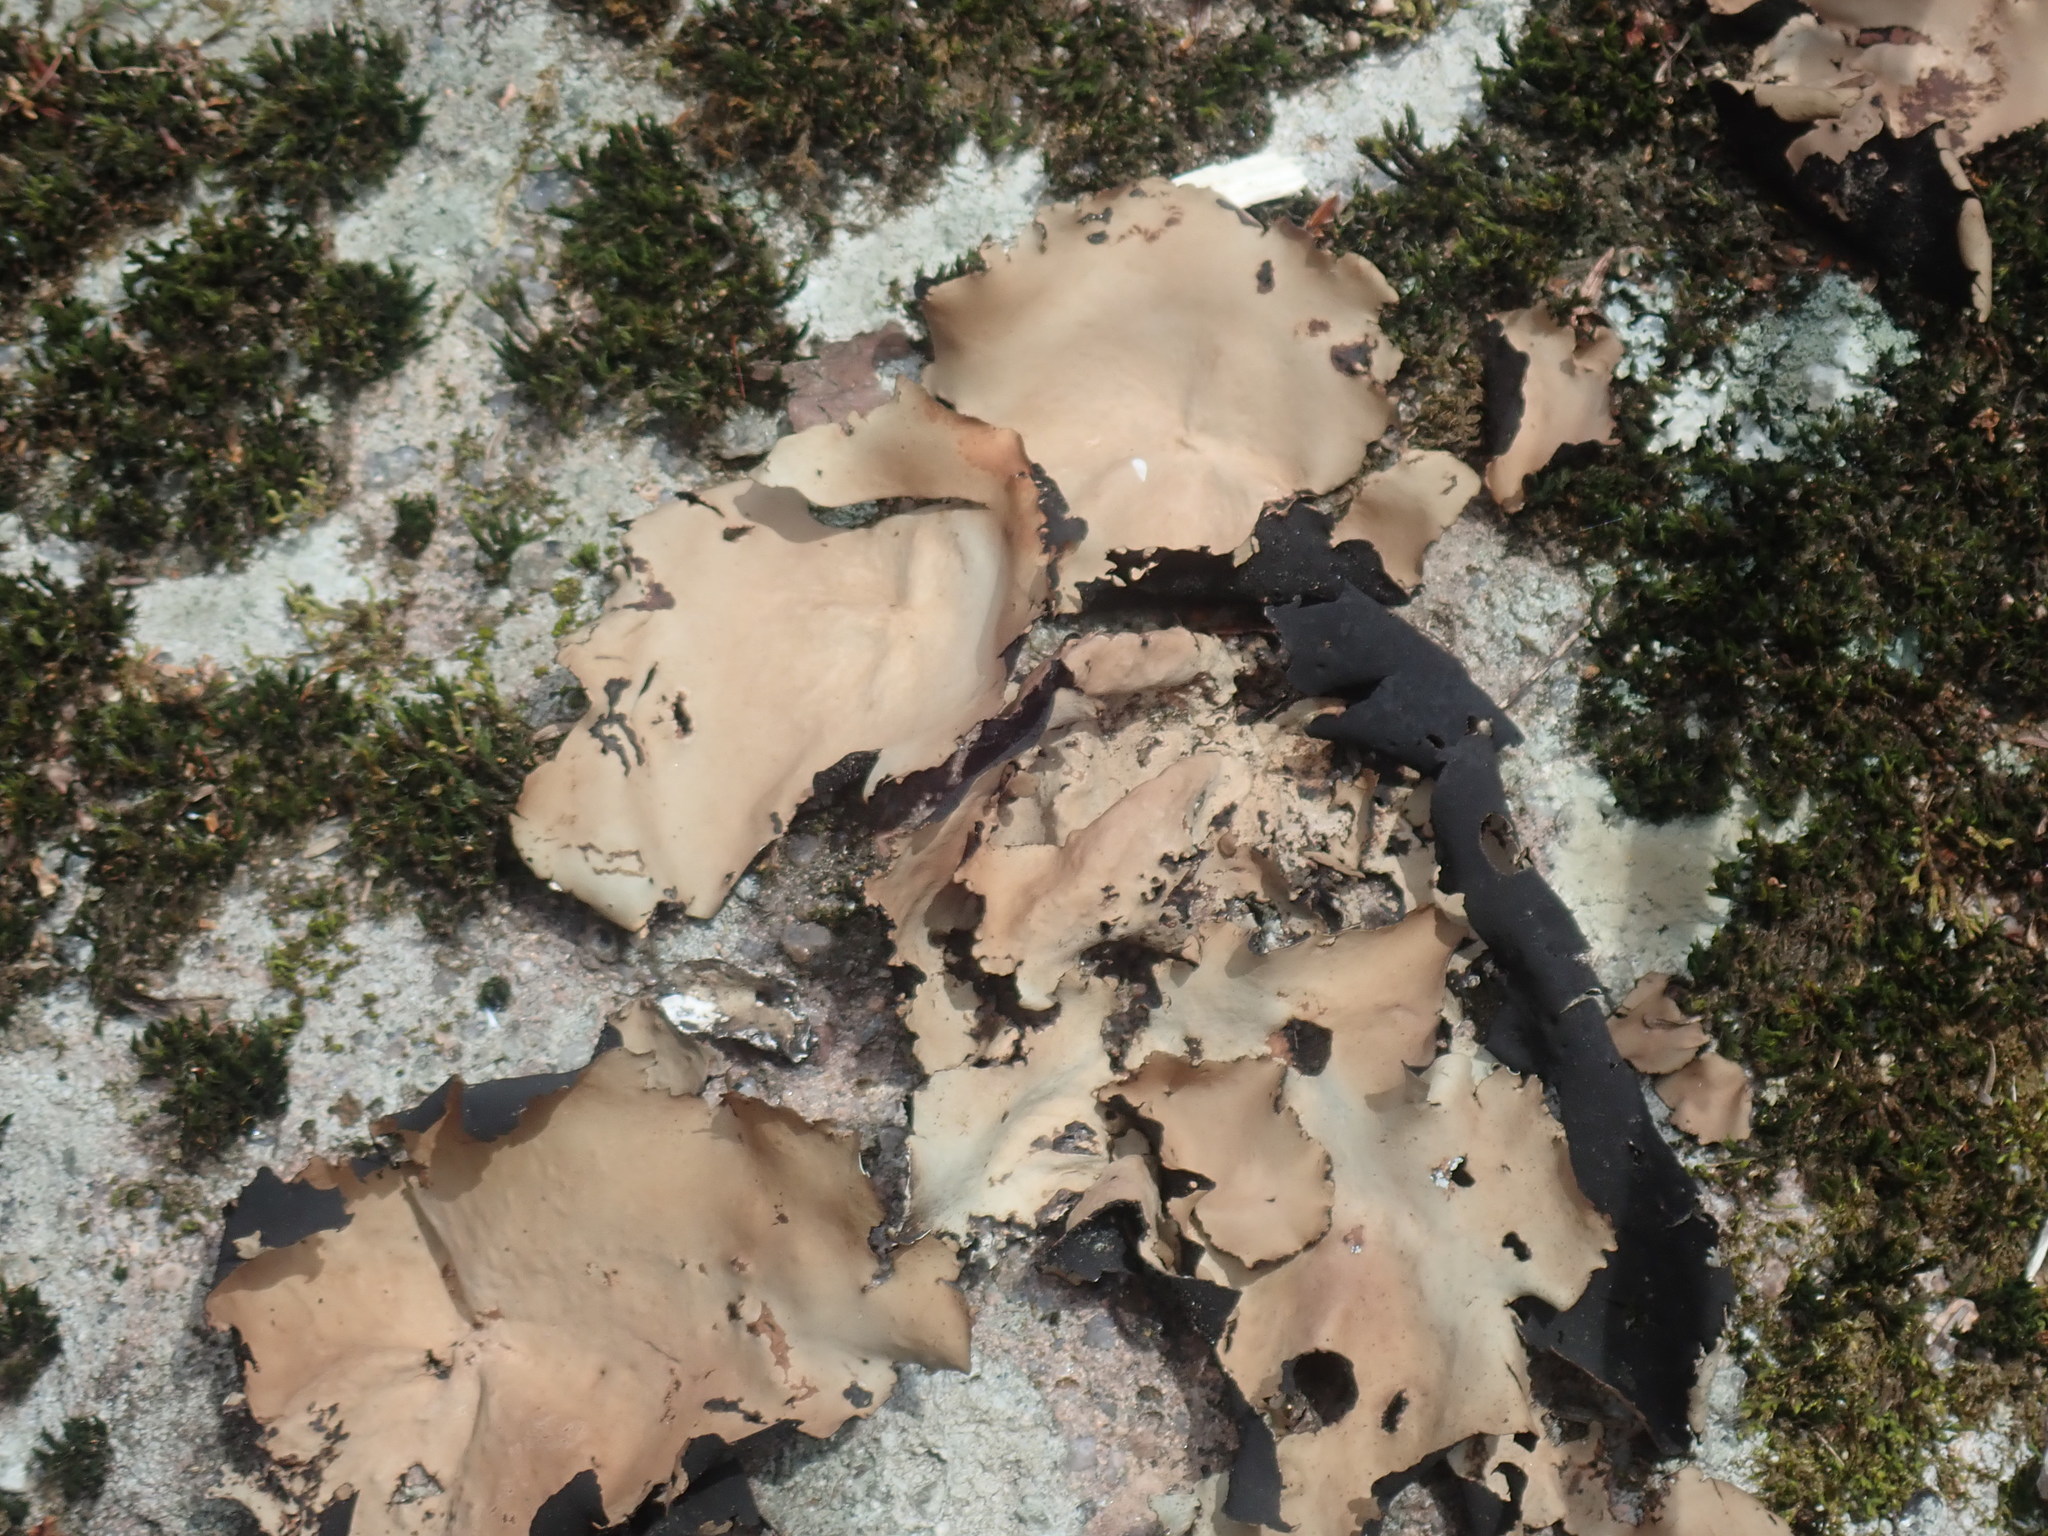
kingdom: Fungi
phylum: Ascomycota
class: Lecanoromycetes
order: Umbilicariales
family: Umbilicariaceae
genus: Umbilicaria
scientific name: Umbilicaria mammulata
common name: Smooth rock tripe
